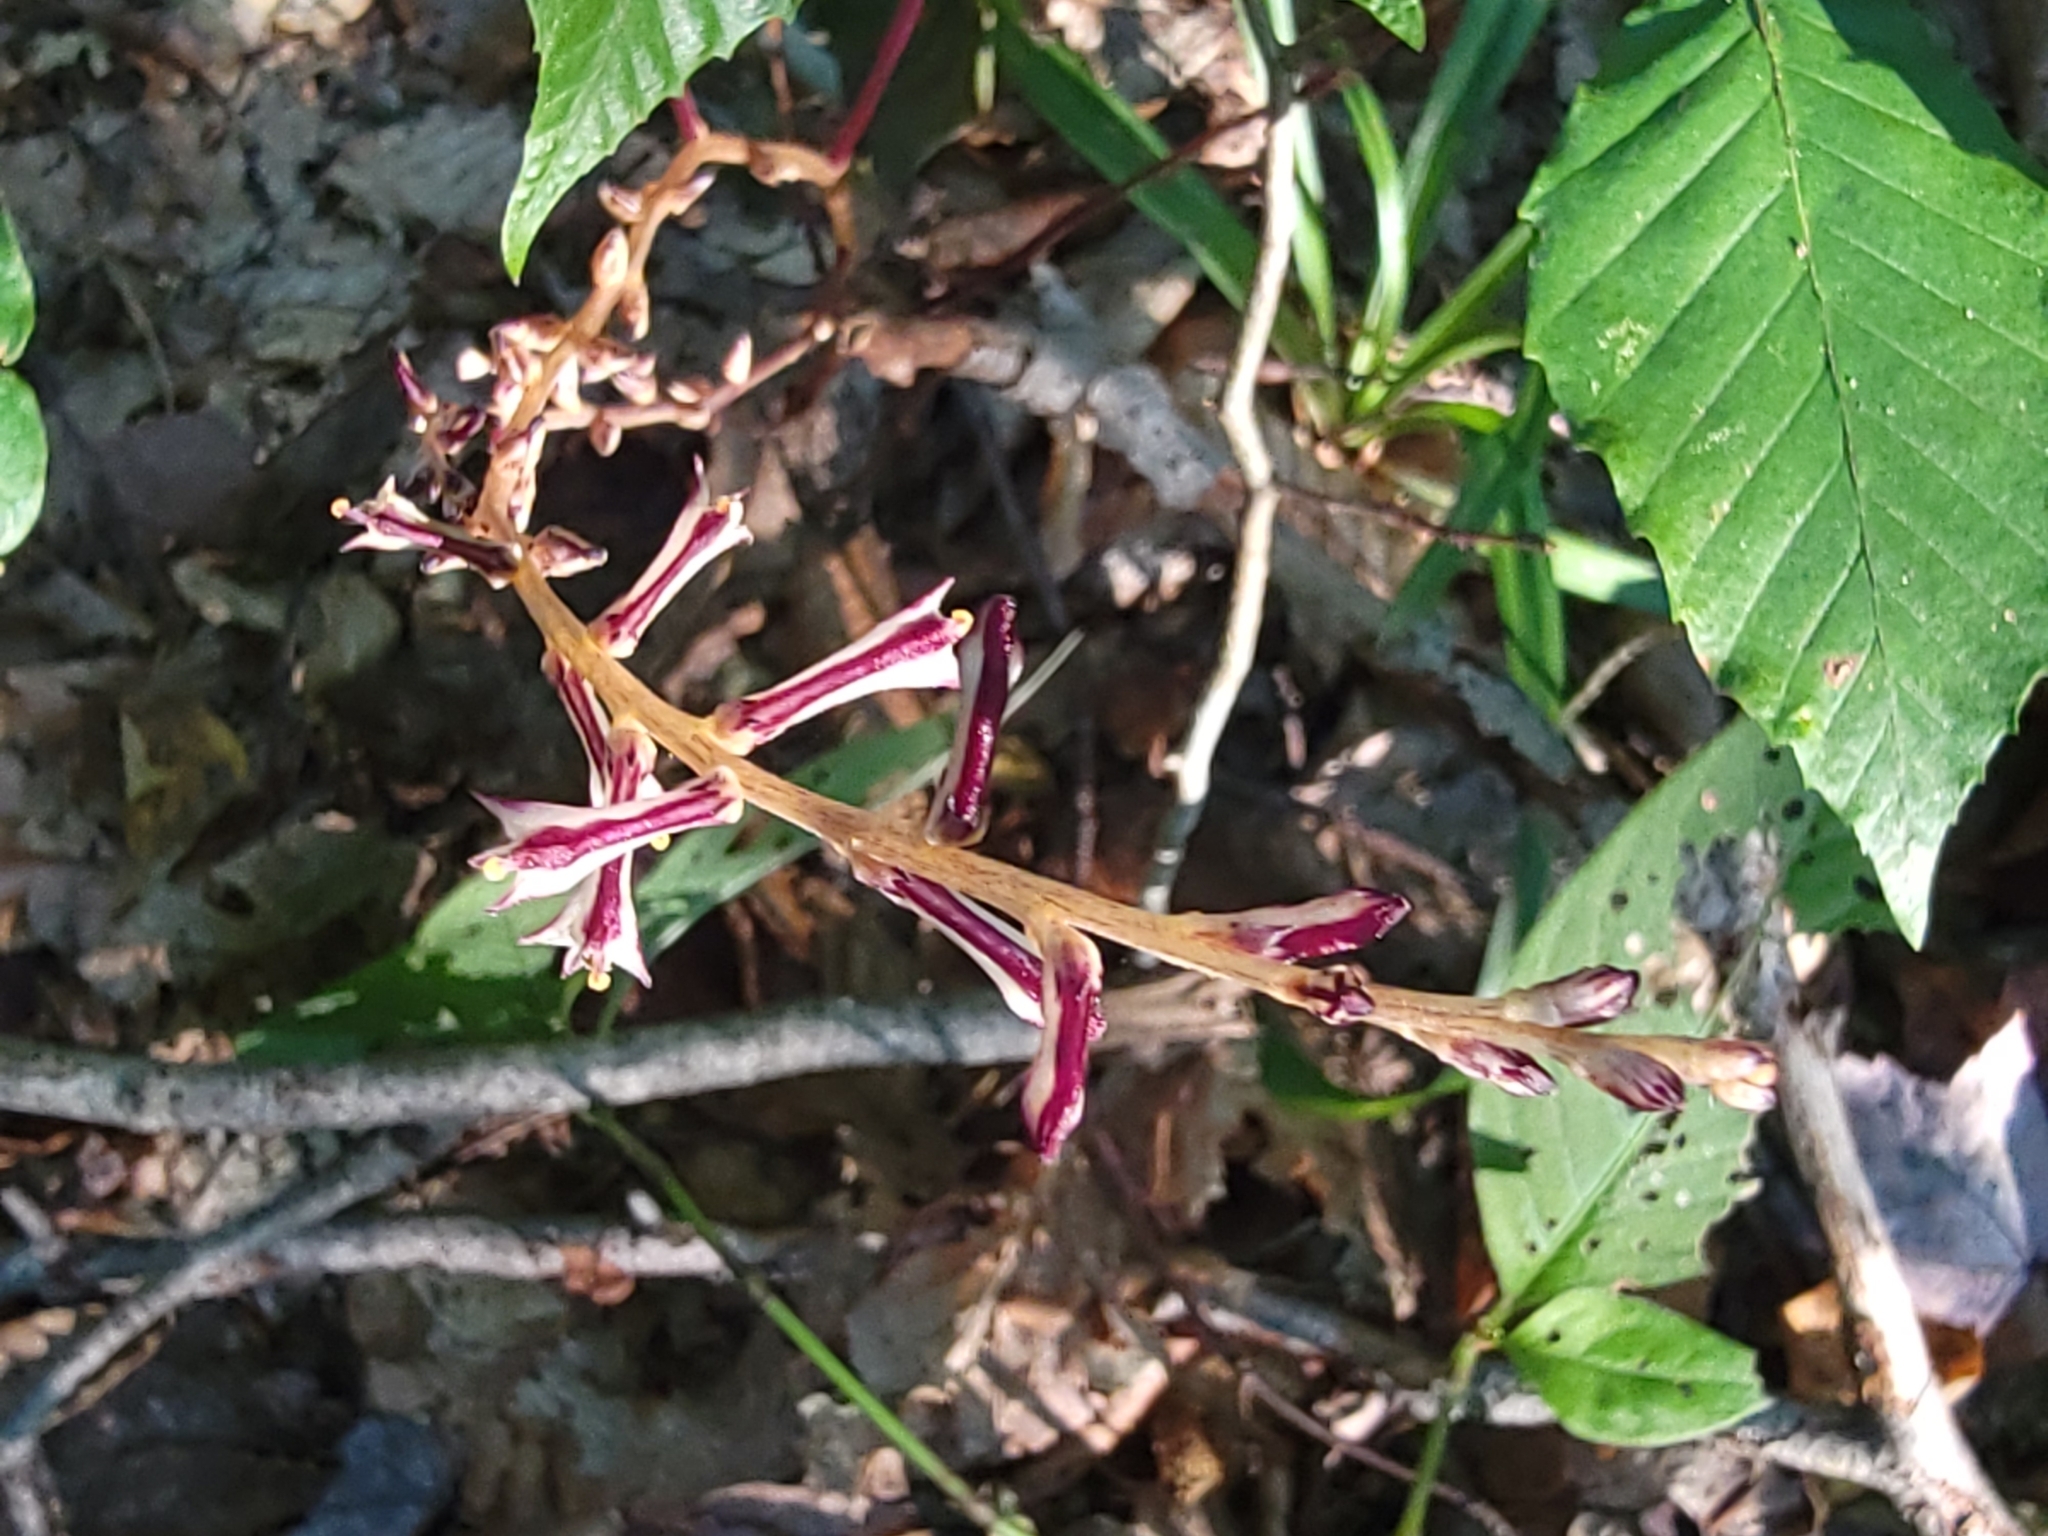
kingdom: Plantae
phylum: Tracheophyta
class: Magnoliopsida
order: Lamiales
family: Orobanchaceae
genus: Epifagus
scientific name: Epifagus virginiana
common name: Beechdrops
